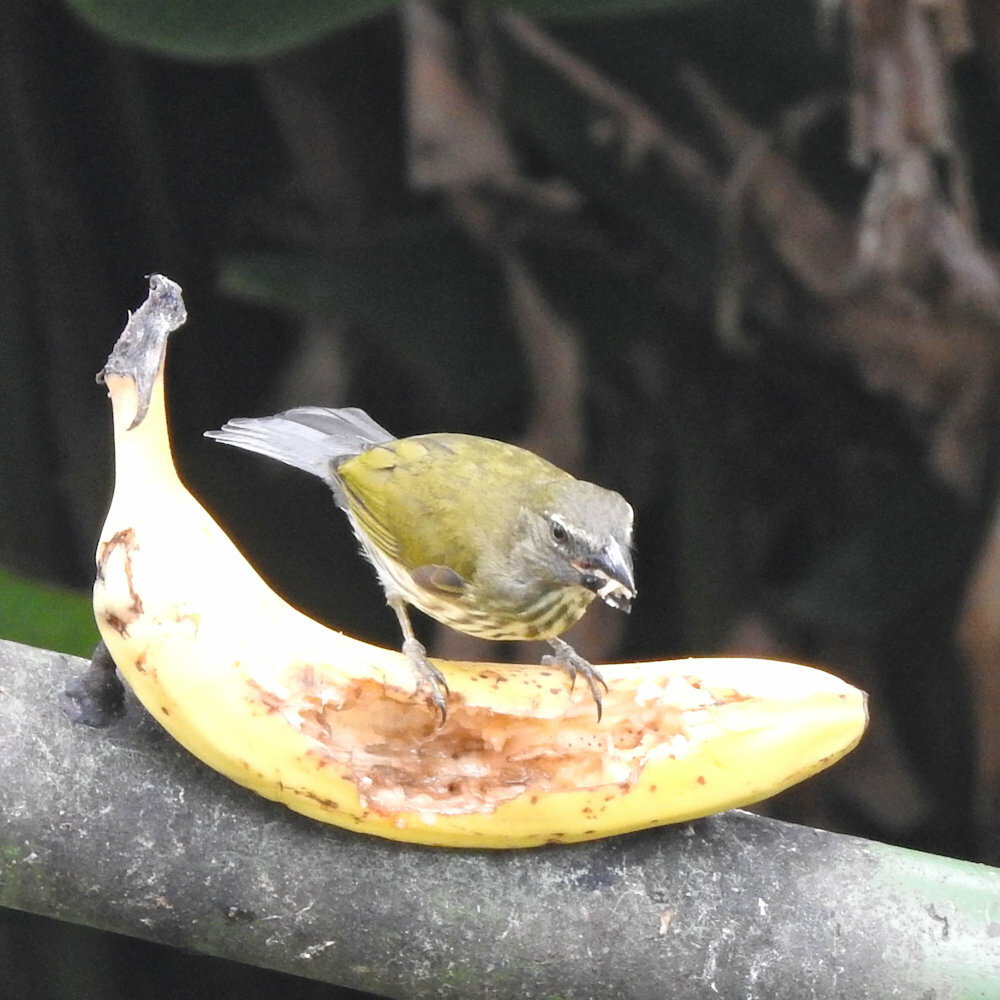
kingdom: Animalia
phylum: Chordata
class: Aves
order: Passeriformes
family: Thraupidae
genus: Saltator
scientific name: Saltator striatipectus
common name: Streaked saltator
